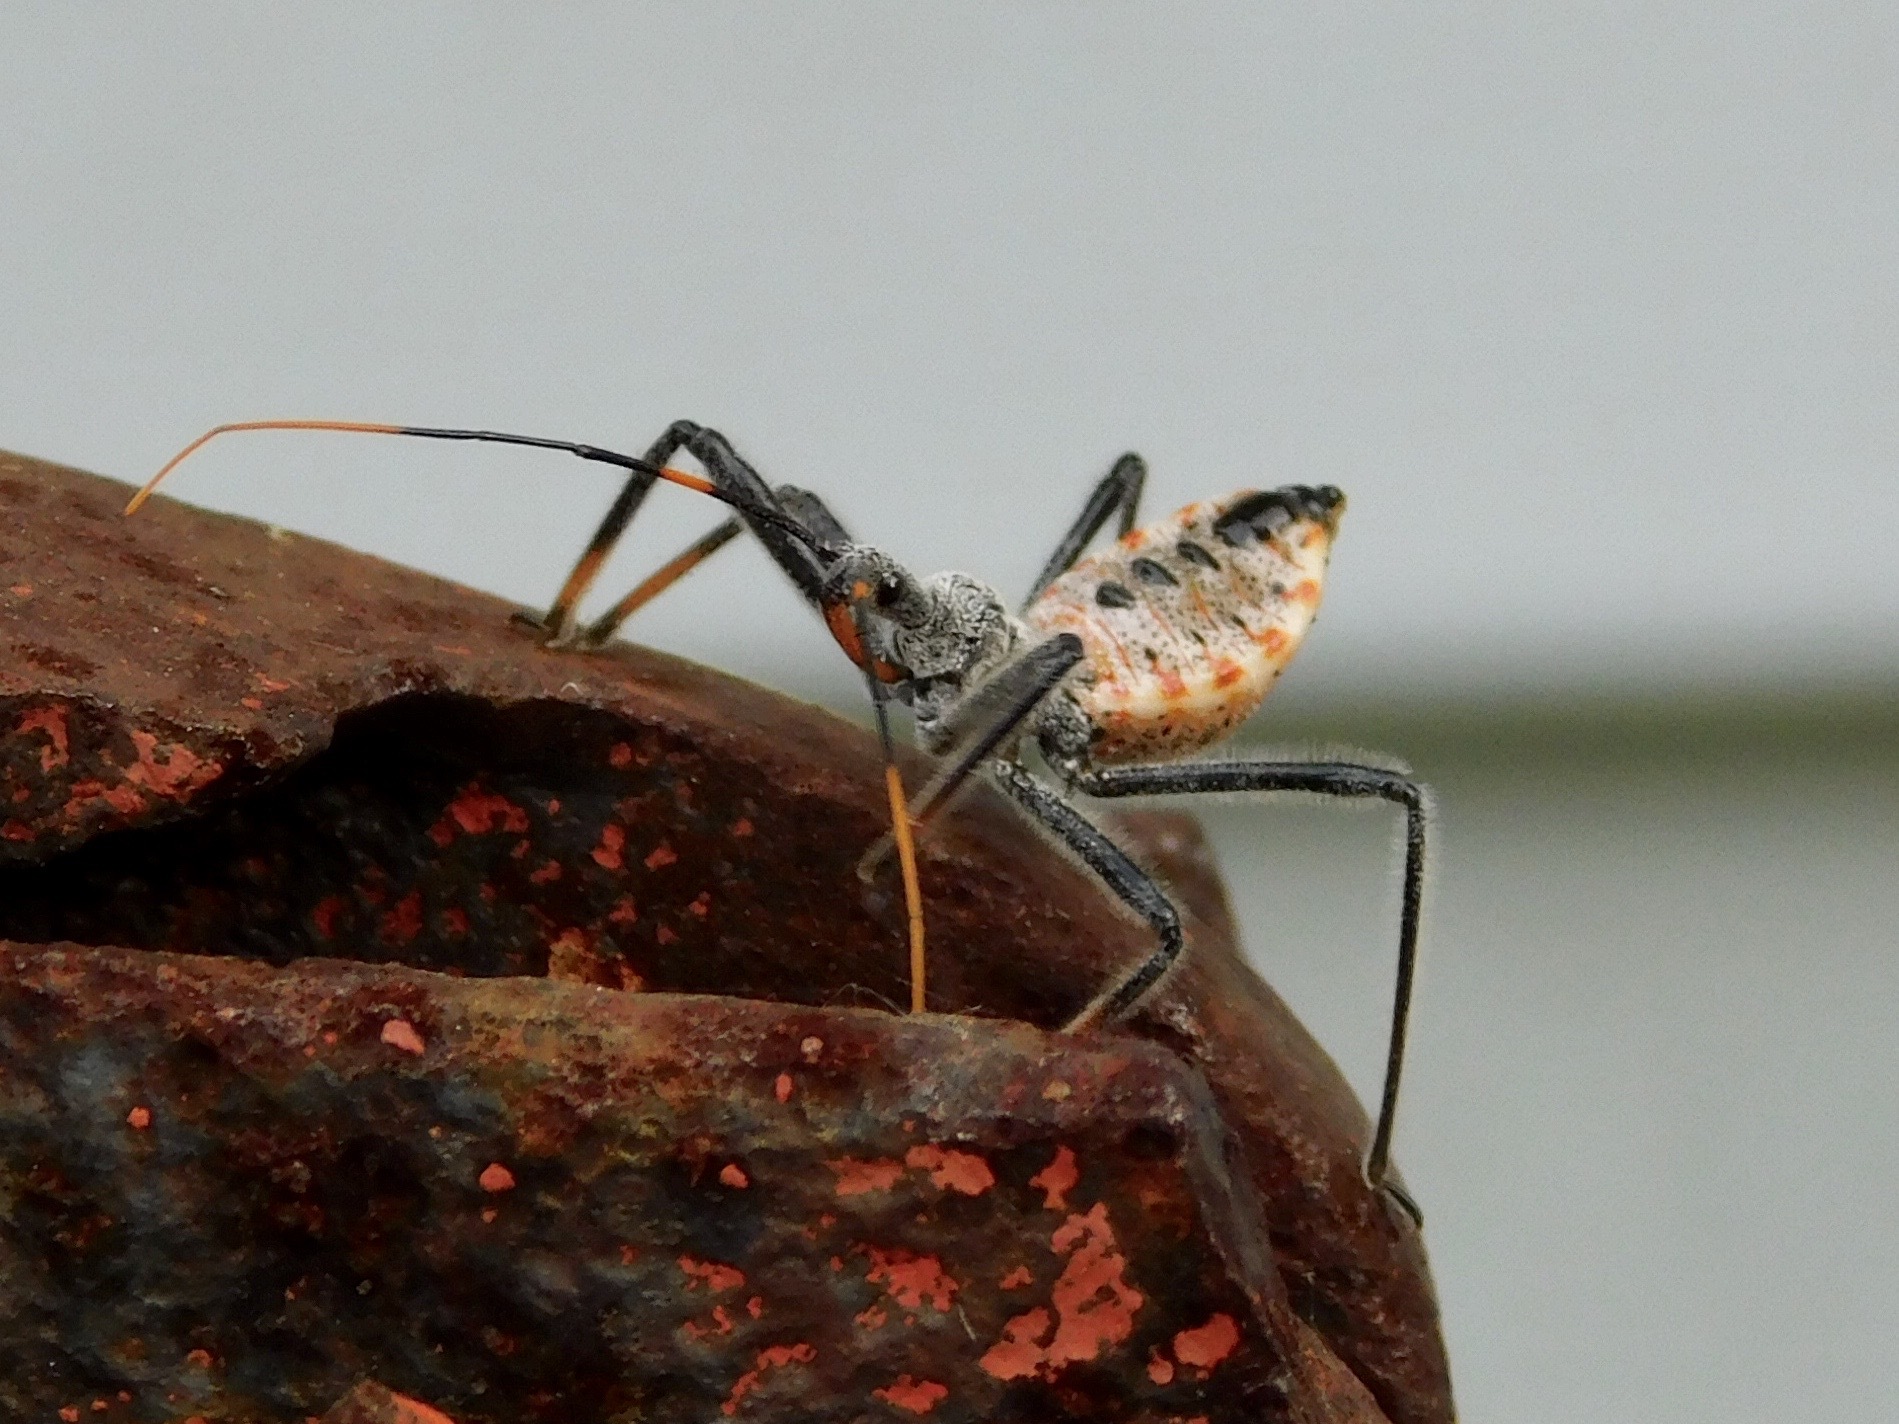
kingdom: Animalia
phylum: Arthropoda
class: Insecta
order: Hemiptera
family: Reduviidae
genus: Arilus
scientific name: Arilus cristatus
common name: North american wheel bug
